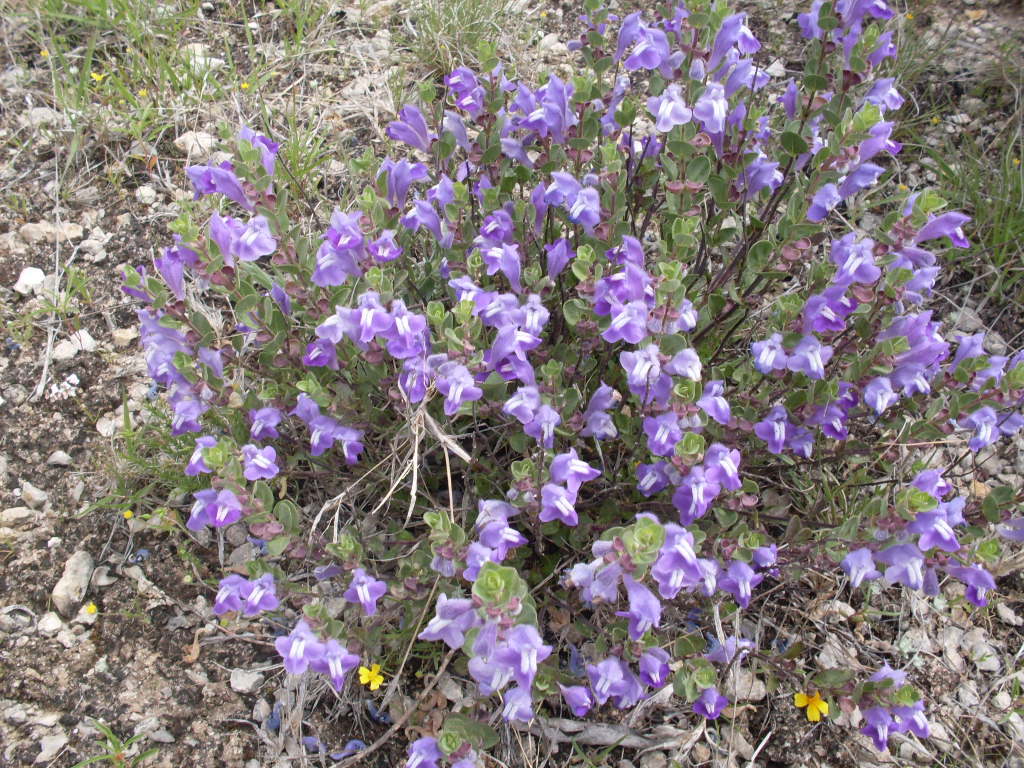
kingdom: Plantae
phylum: Tracheophyta
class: Magnoliopsida
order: Lamiales
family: Lamiaceae
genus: Scutellaria
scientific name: Scutellaria drummondii
